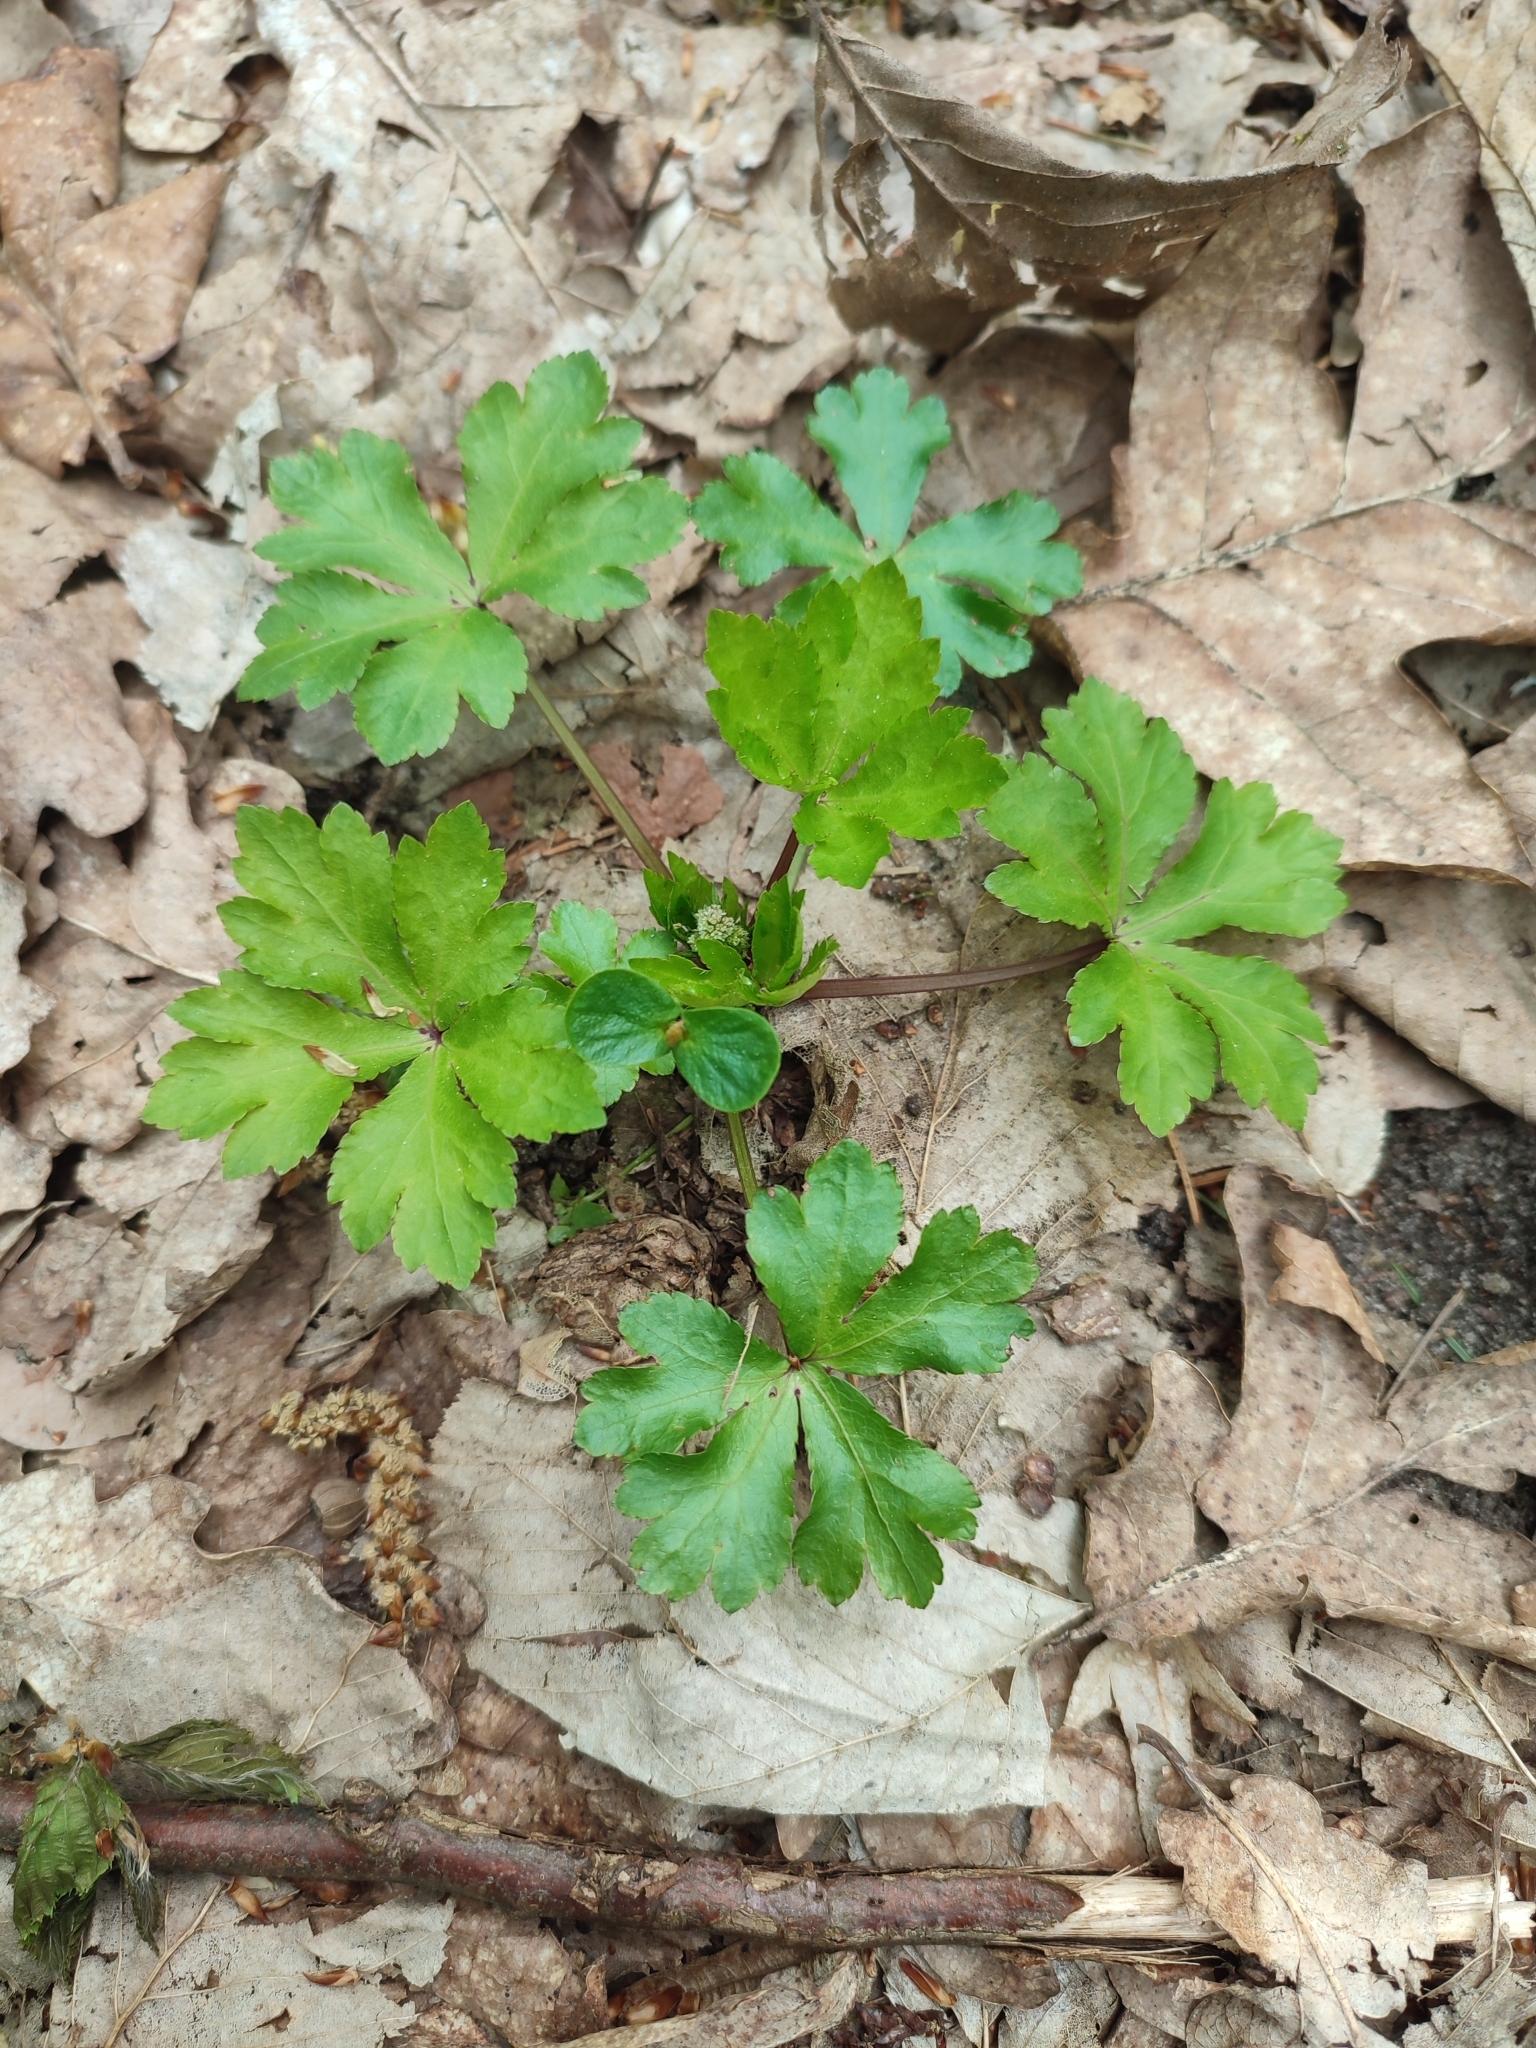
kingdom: Plantae
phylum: Tracheophyta
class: Magnoliopsida
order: Apiales
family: Apiaceae
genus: Sanicula
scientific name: Sanicula europaea
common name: Sanicle
